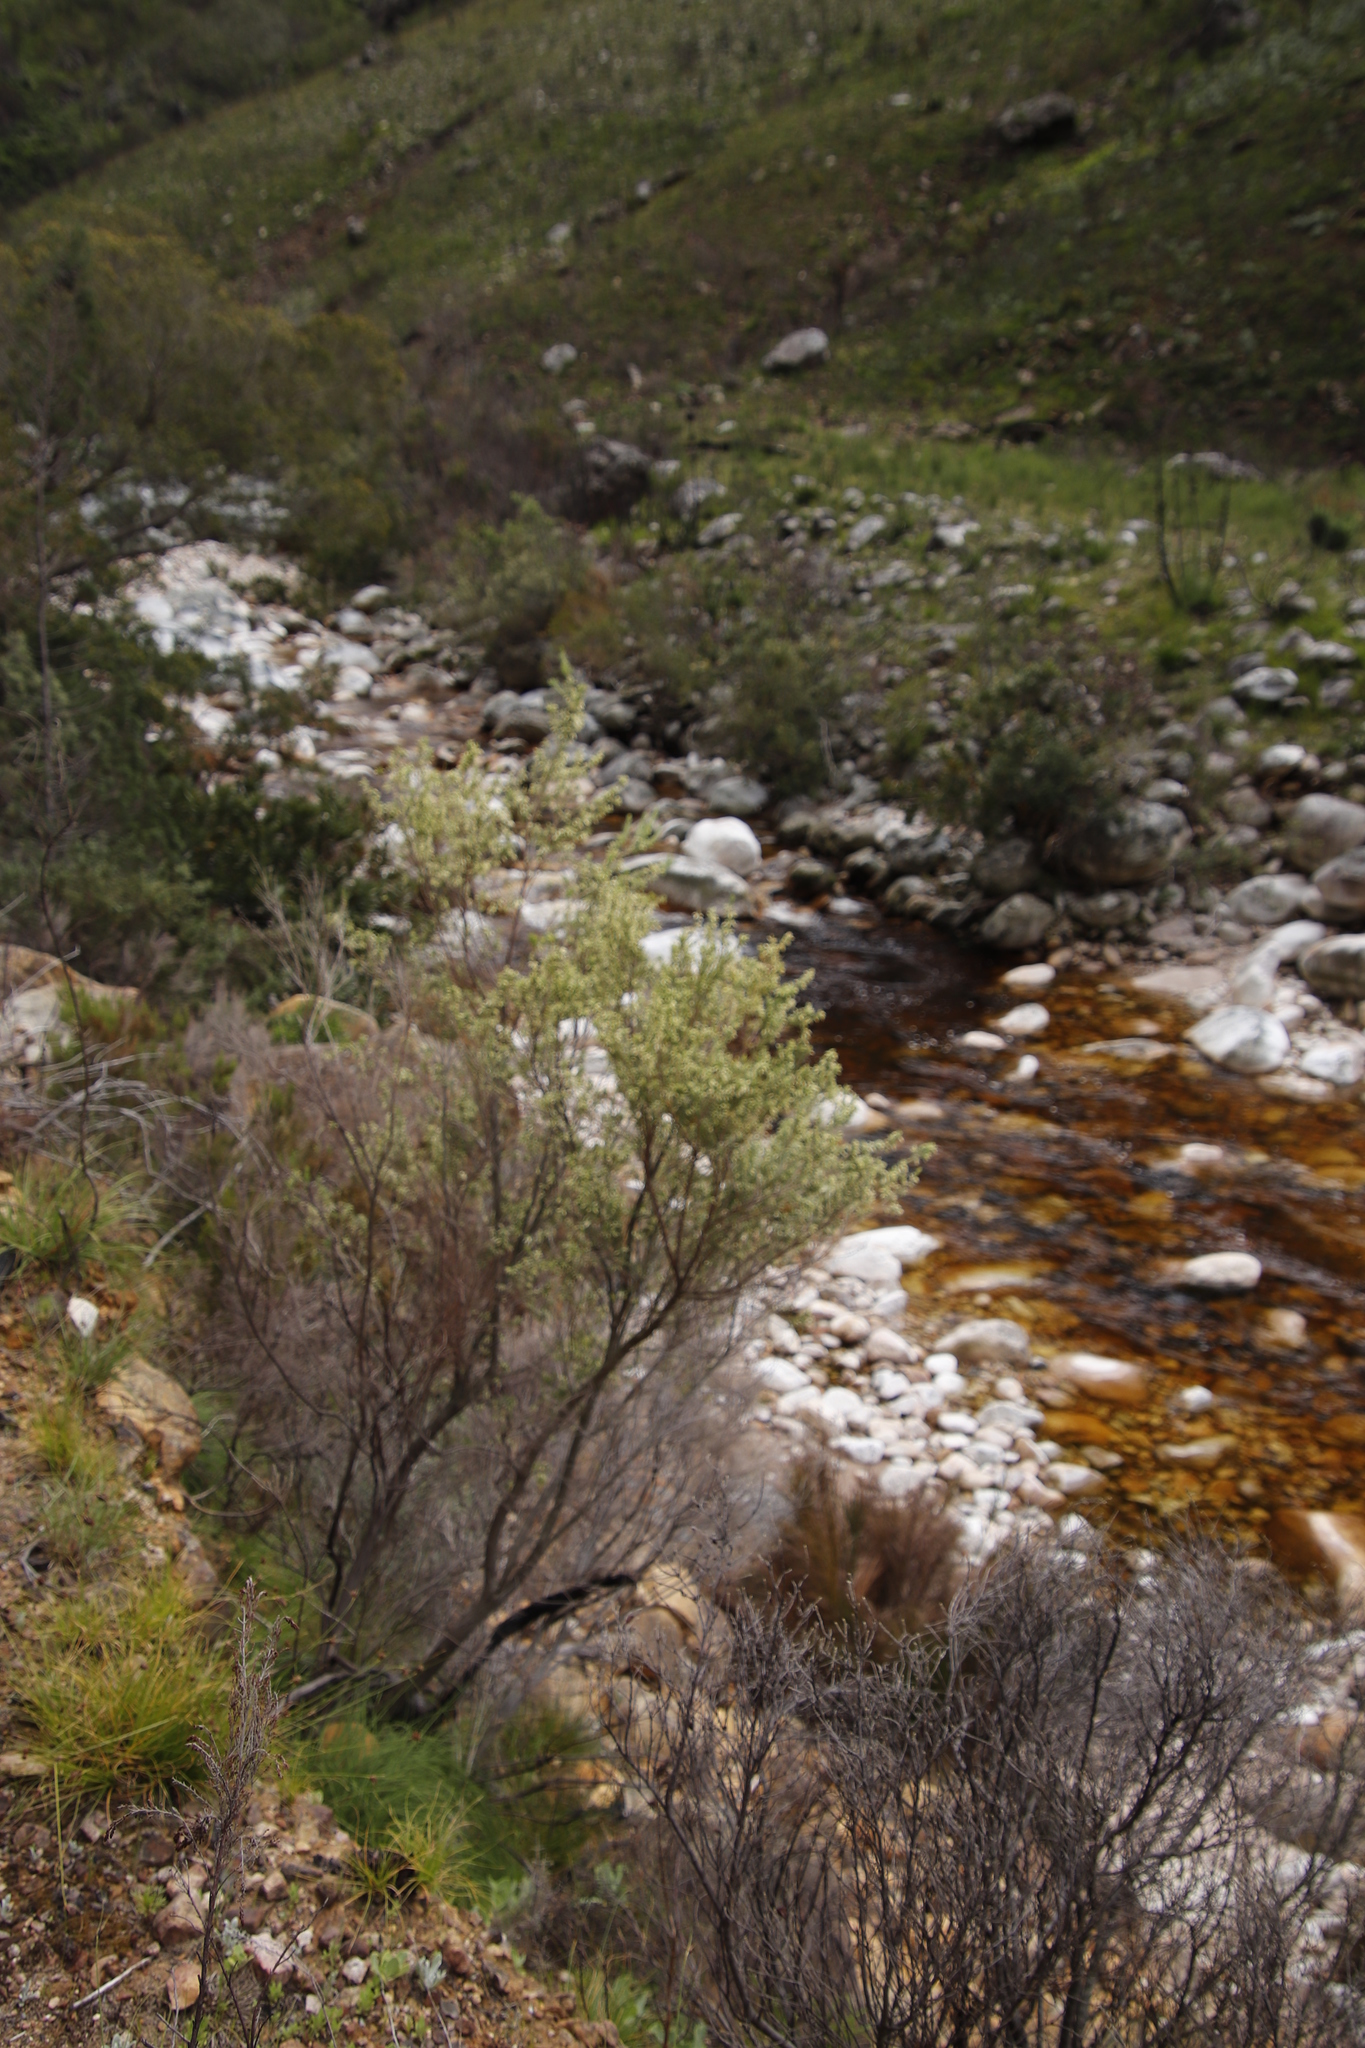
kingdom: Plantae
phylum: Tracheophyta
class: Magnoliopsida
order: Ericales
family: Ericaceae
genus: Erica
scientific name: Erica caffra
